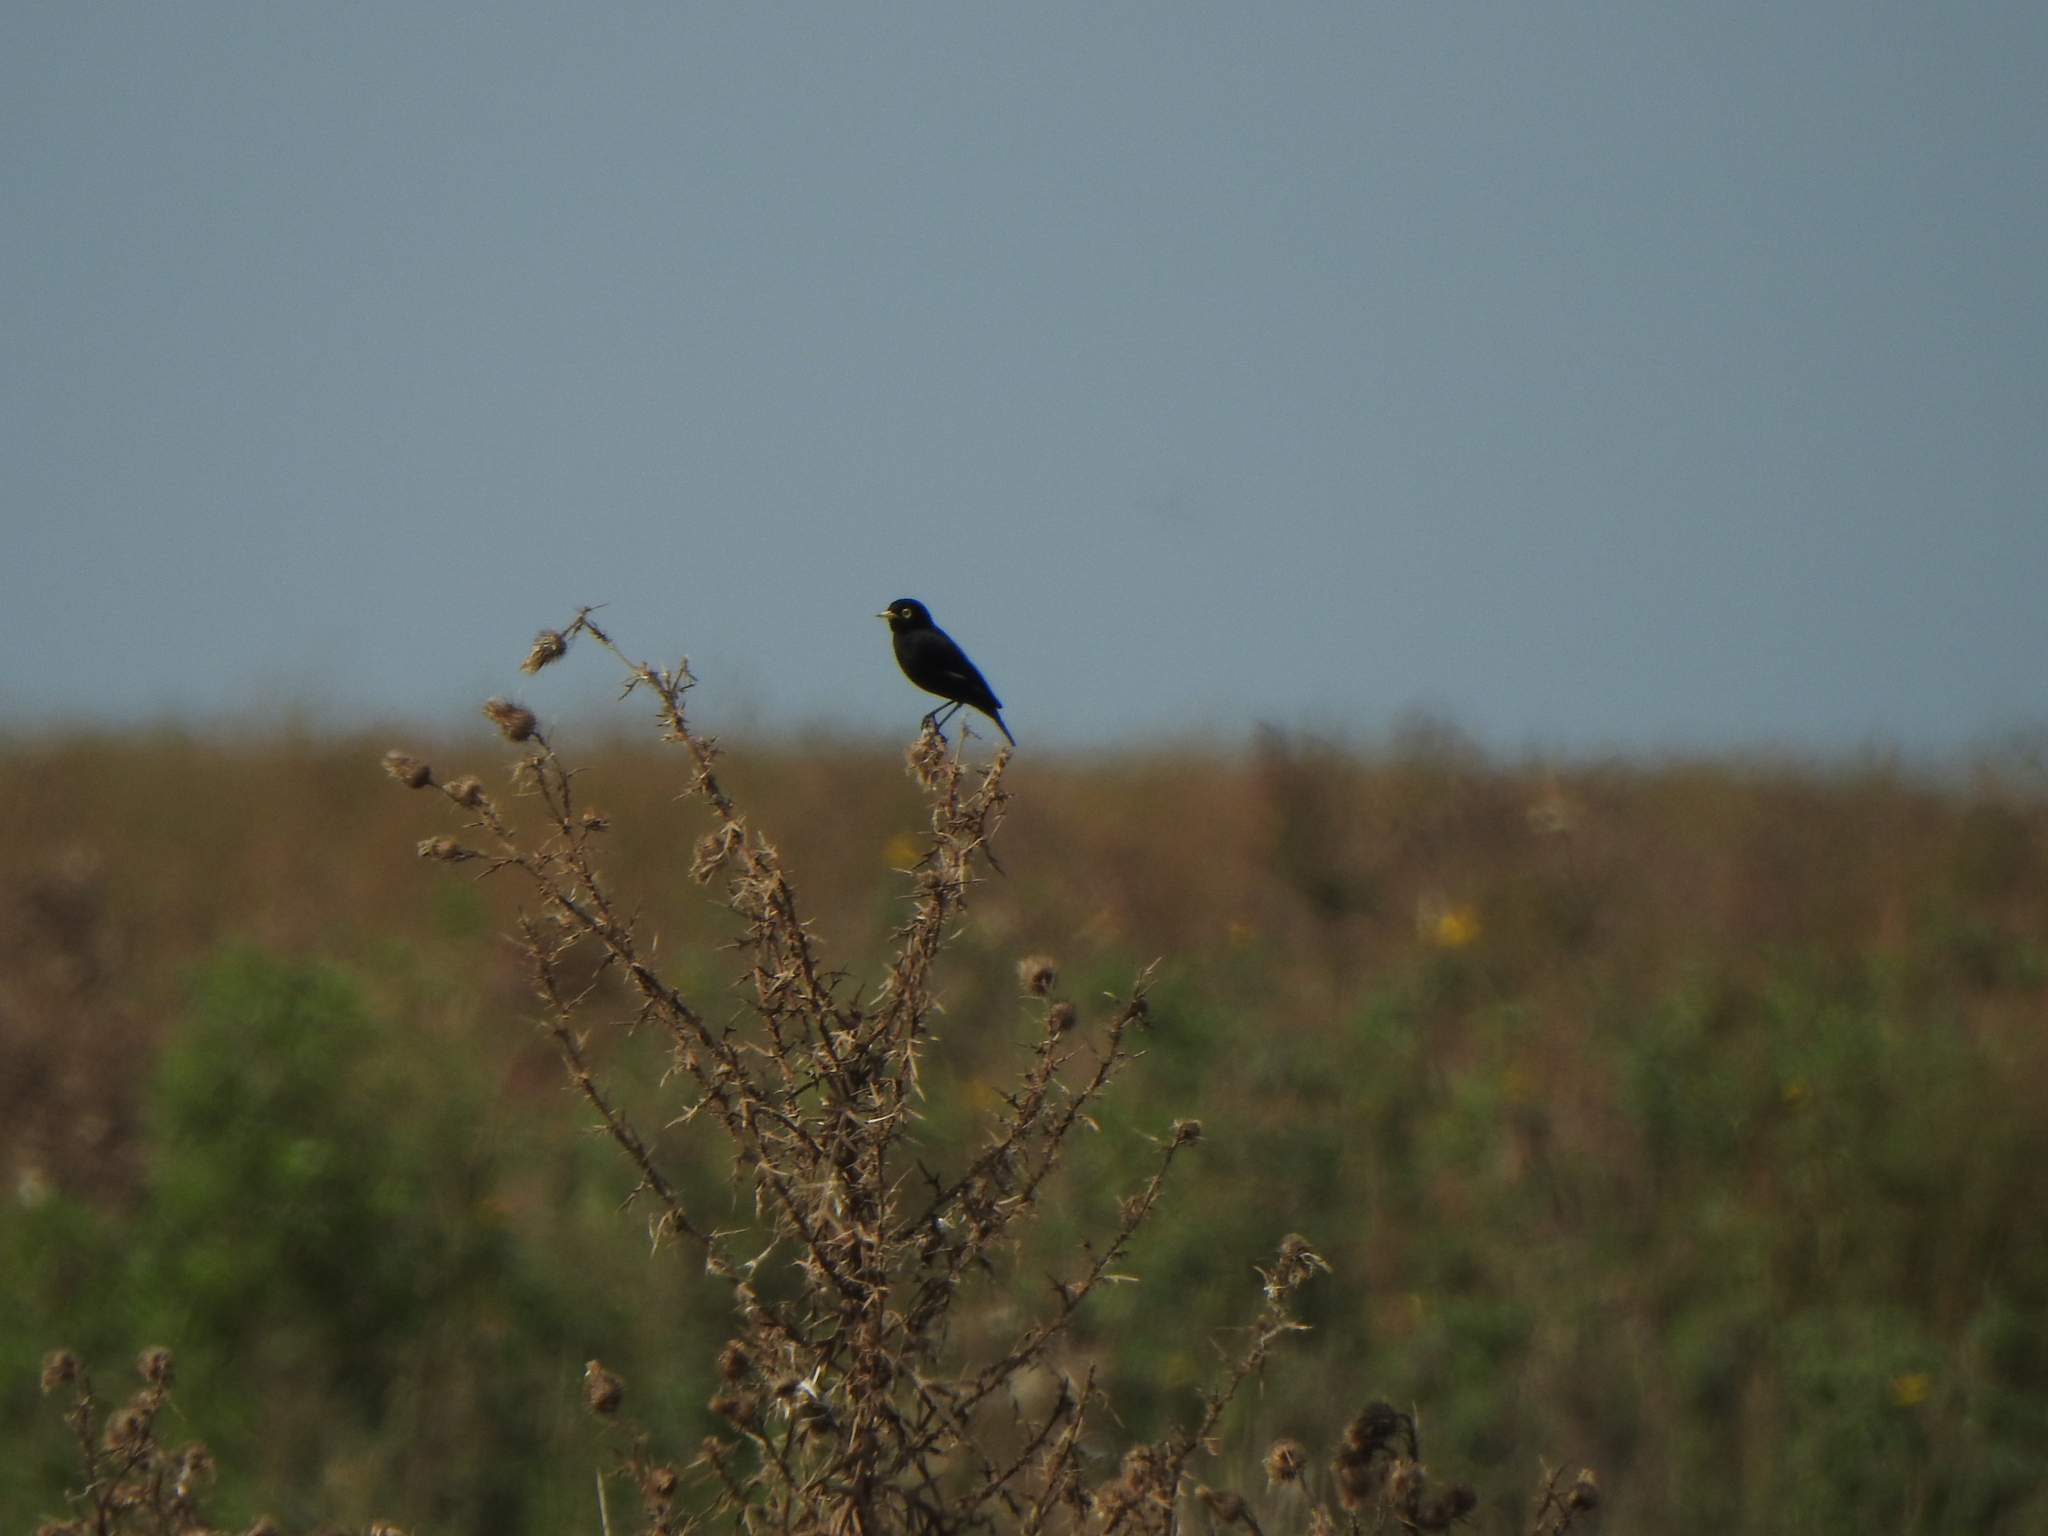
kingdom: Animalia
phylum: Chordata
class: Aves
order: Passeriformes
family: Tyrannidae
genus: Hymenops
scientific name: Hymenops perspicillatus
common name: Spectacled tyrant
